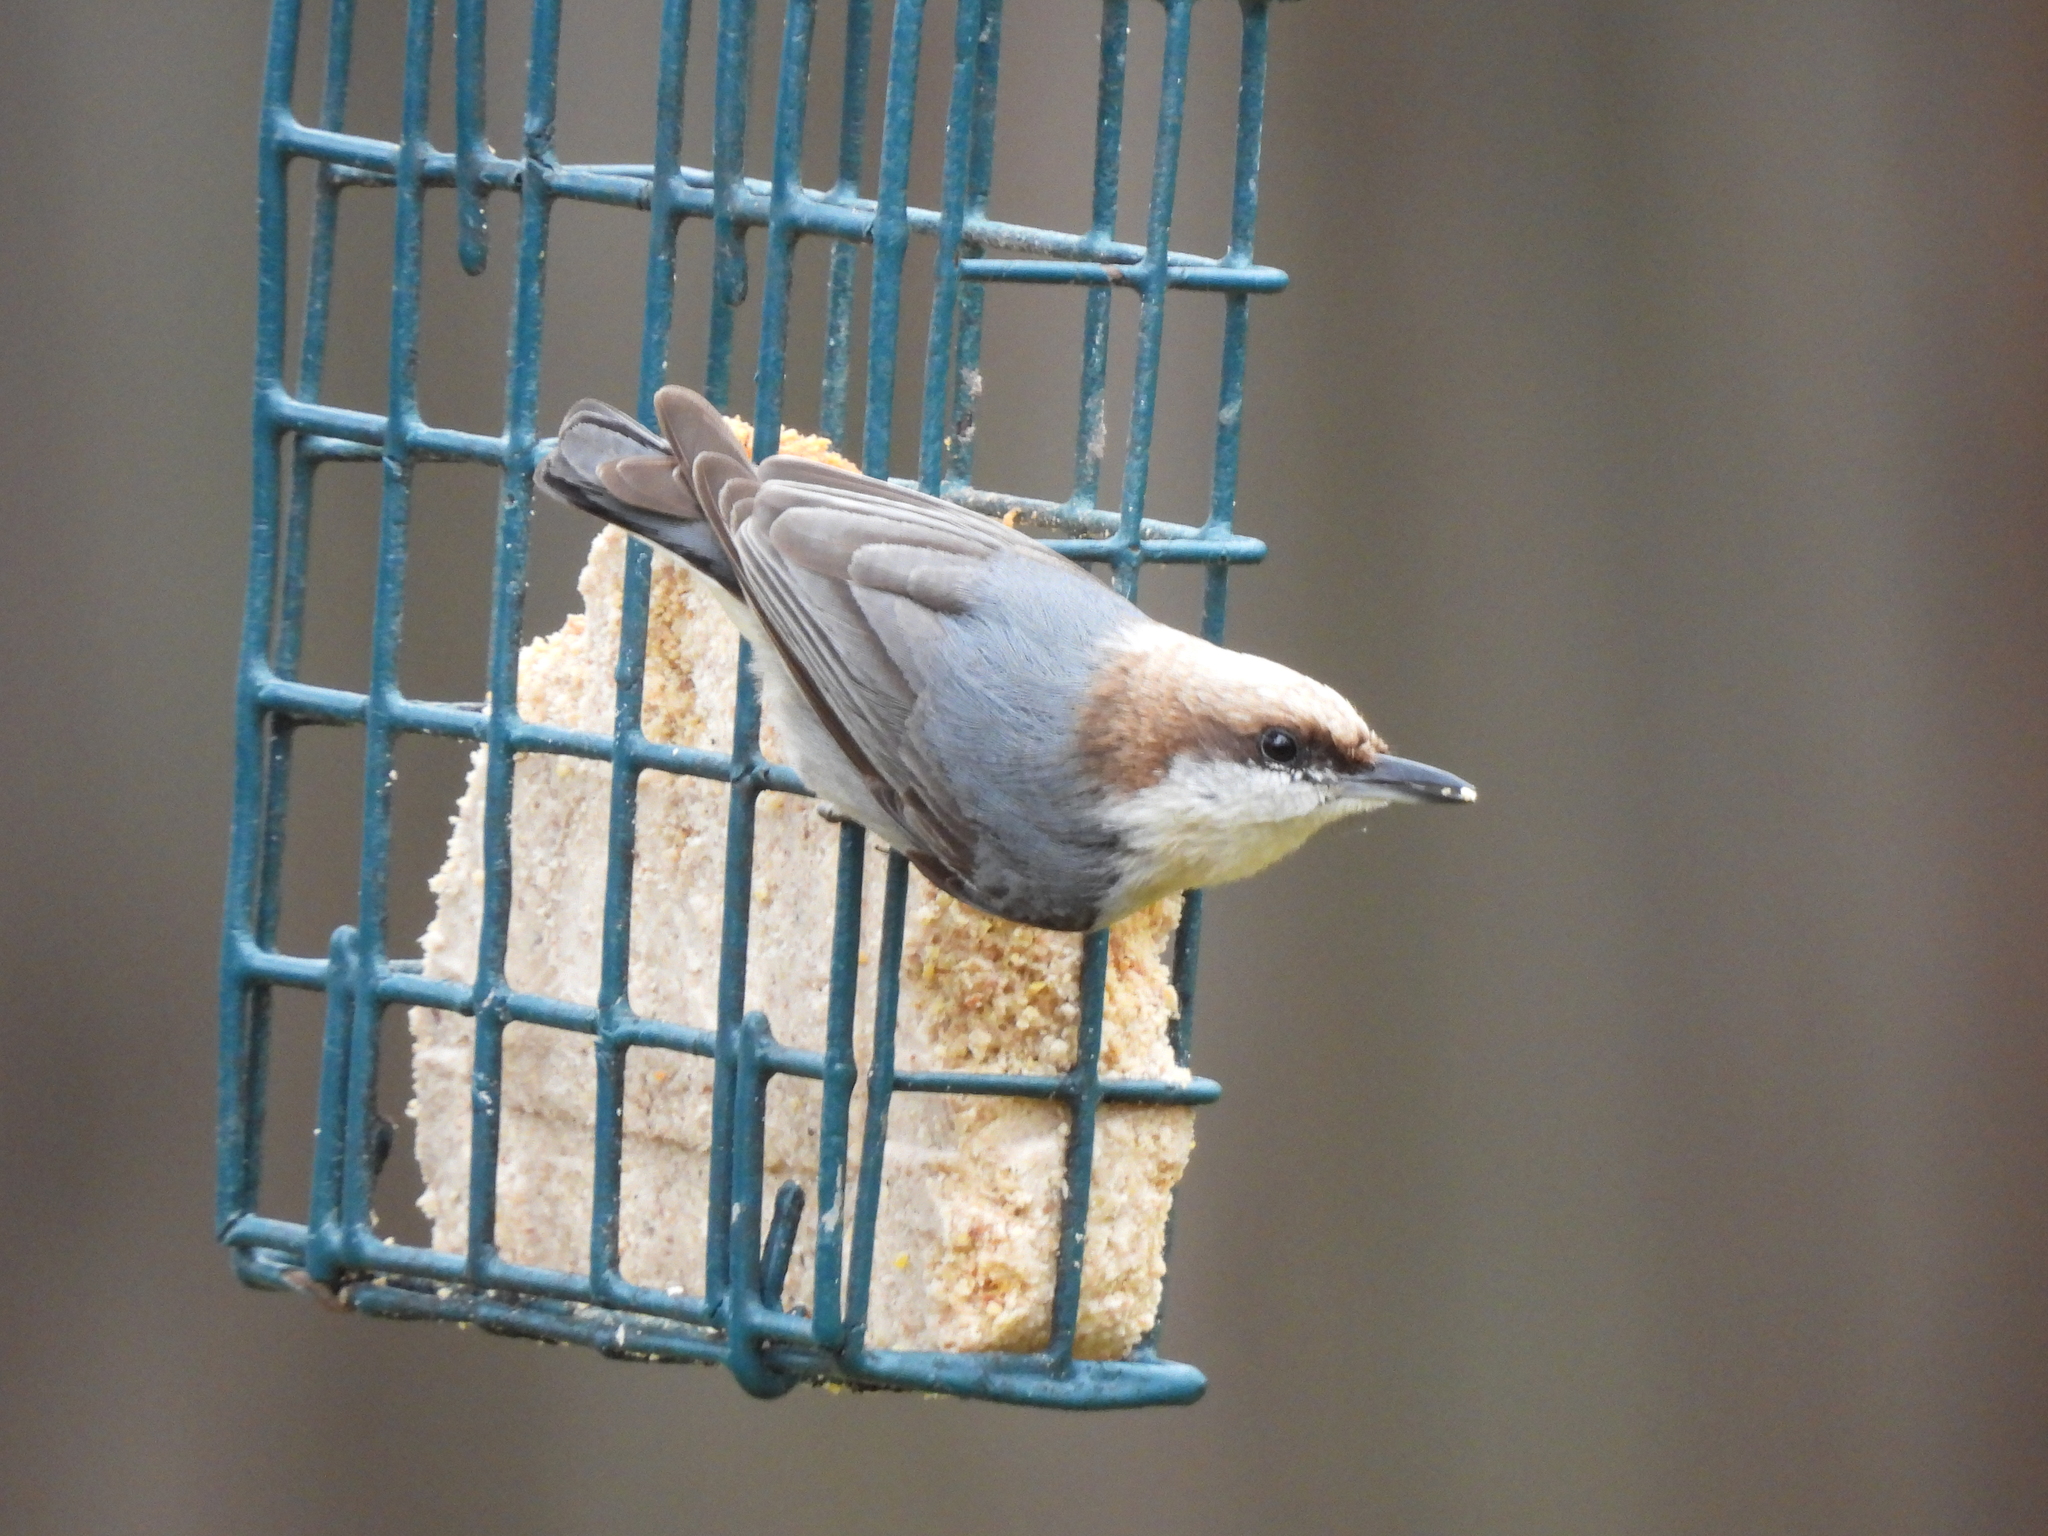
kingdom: Animalia
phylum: Chordata
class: Aves
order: Passeriformes
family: Sittidae
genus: Sitta
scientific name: Sitta pusilla
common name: Brown-headed nuthatch
